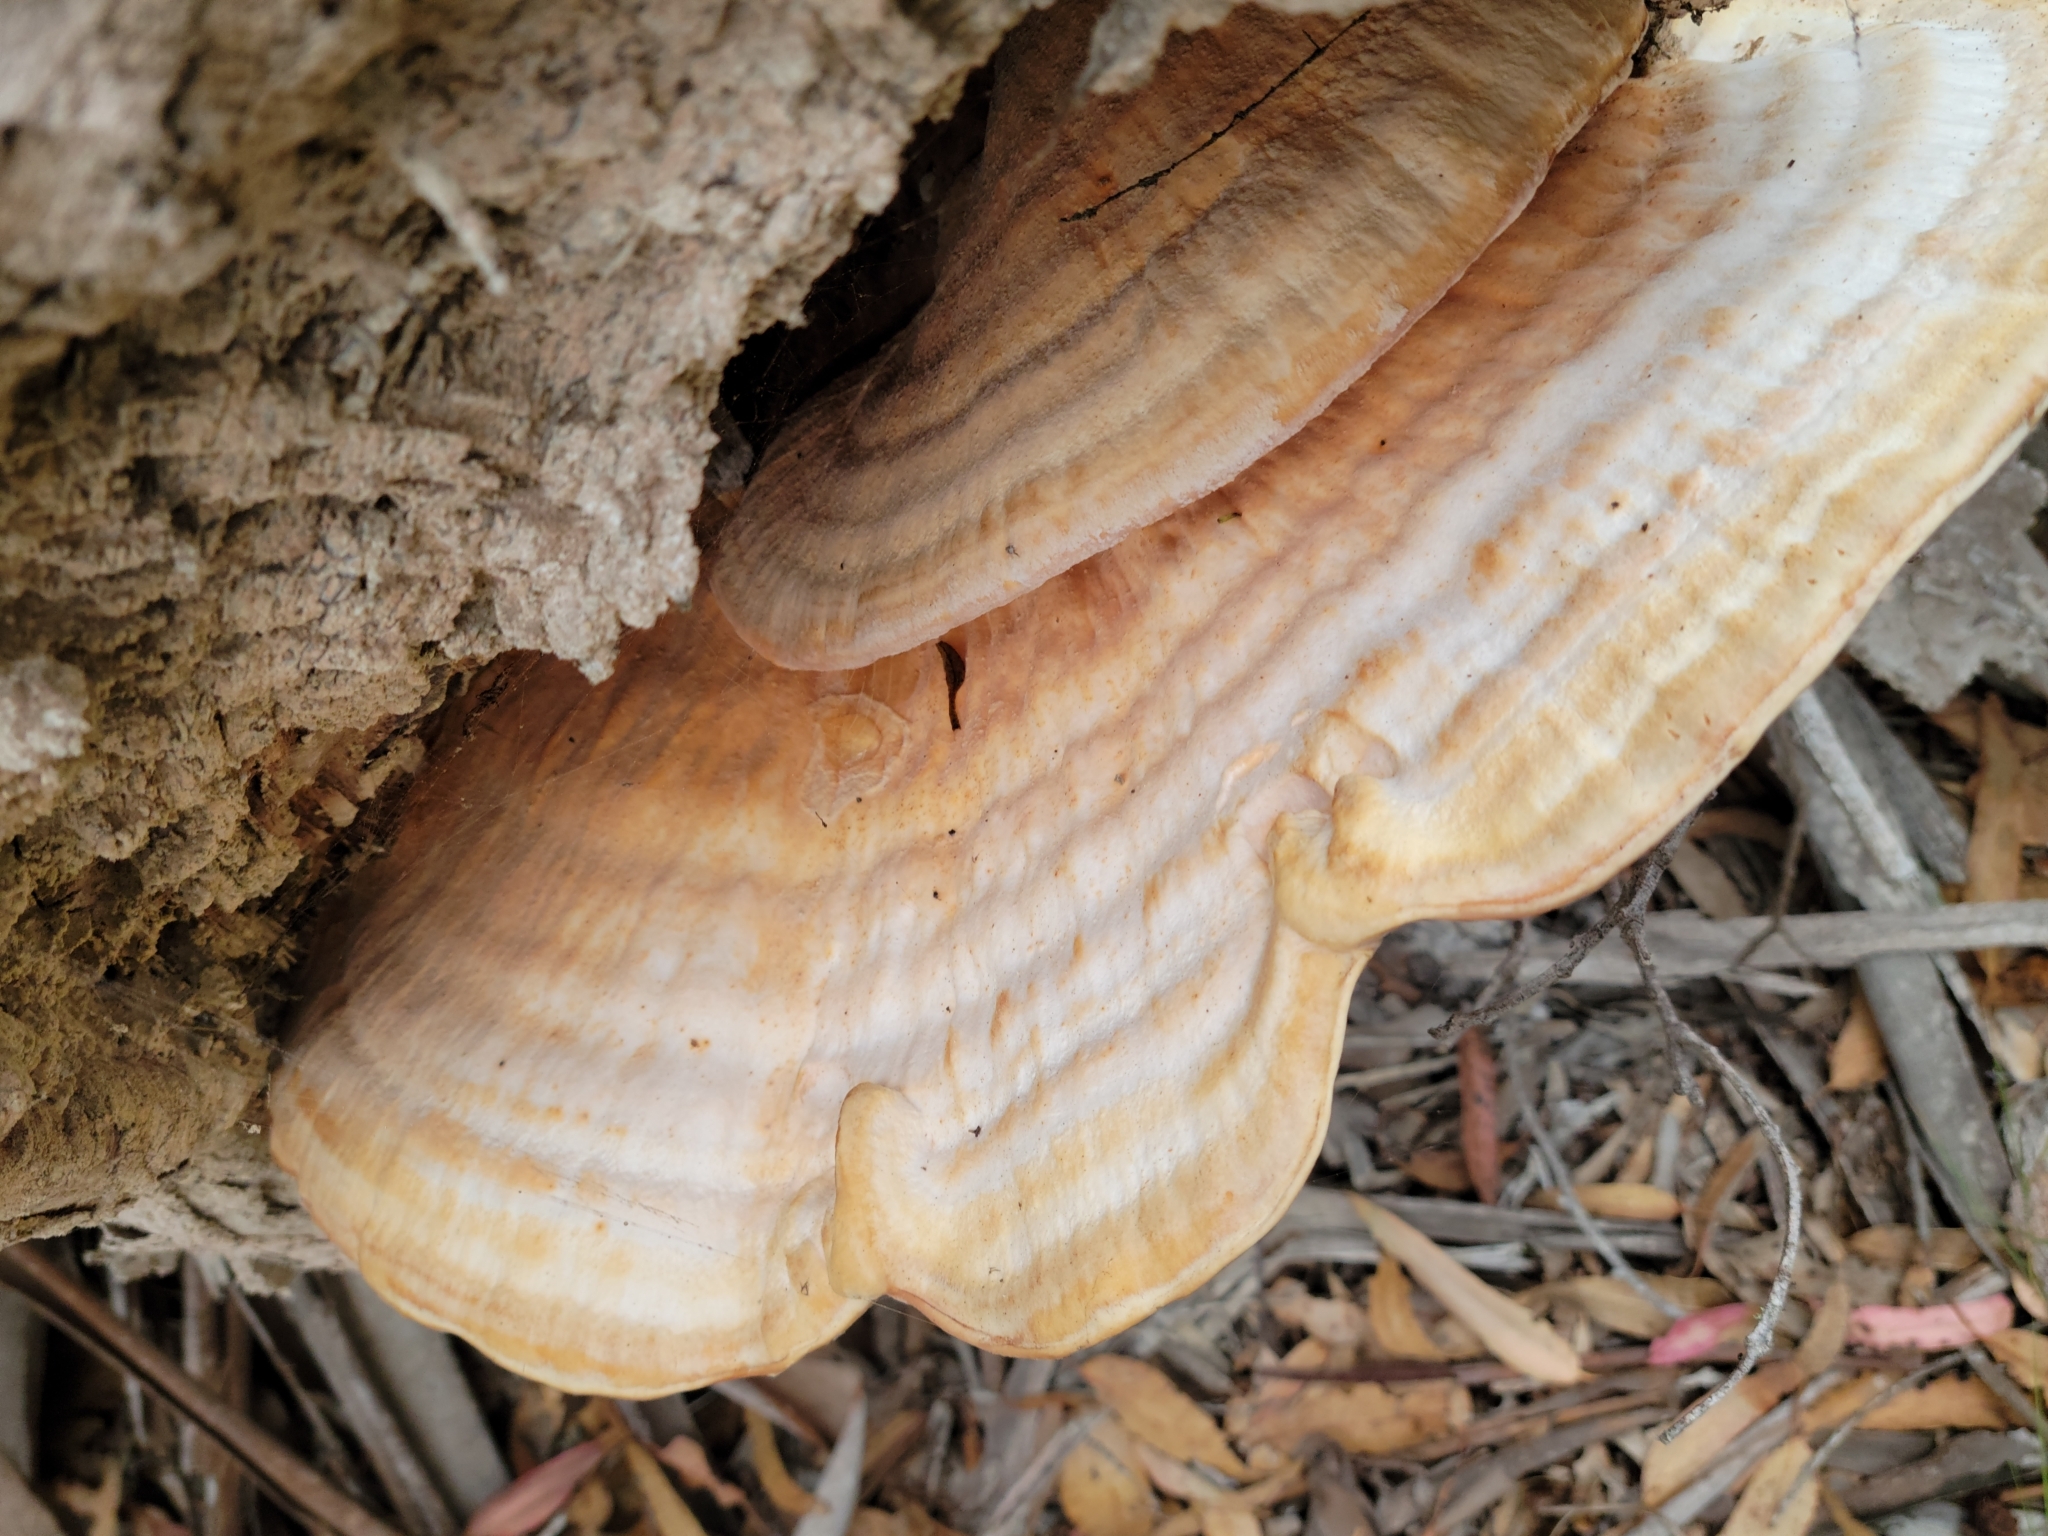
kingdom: Fungi
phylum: Basidiomycota
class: Agaricomycetes
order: Polyporales
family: Laetiporaceae
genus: Laetiporus
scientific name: Laetiporus gilbertsonii
